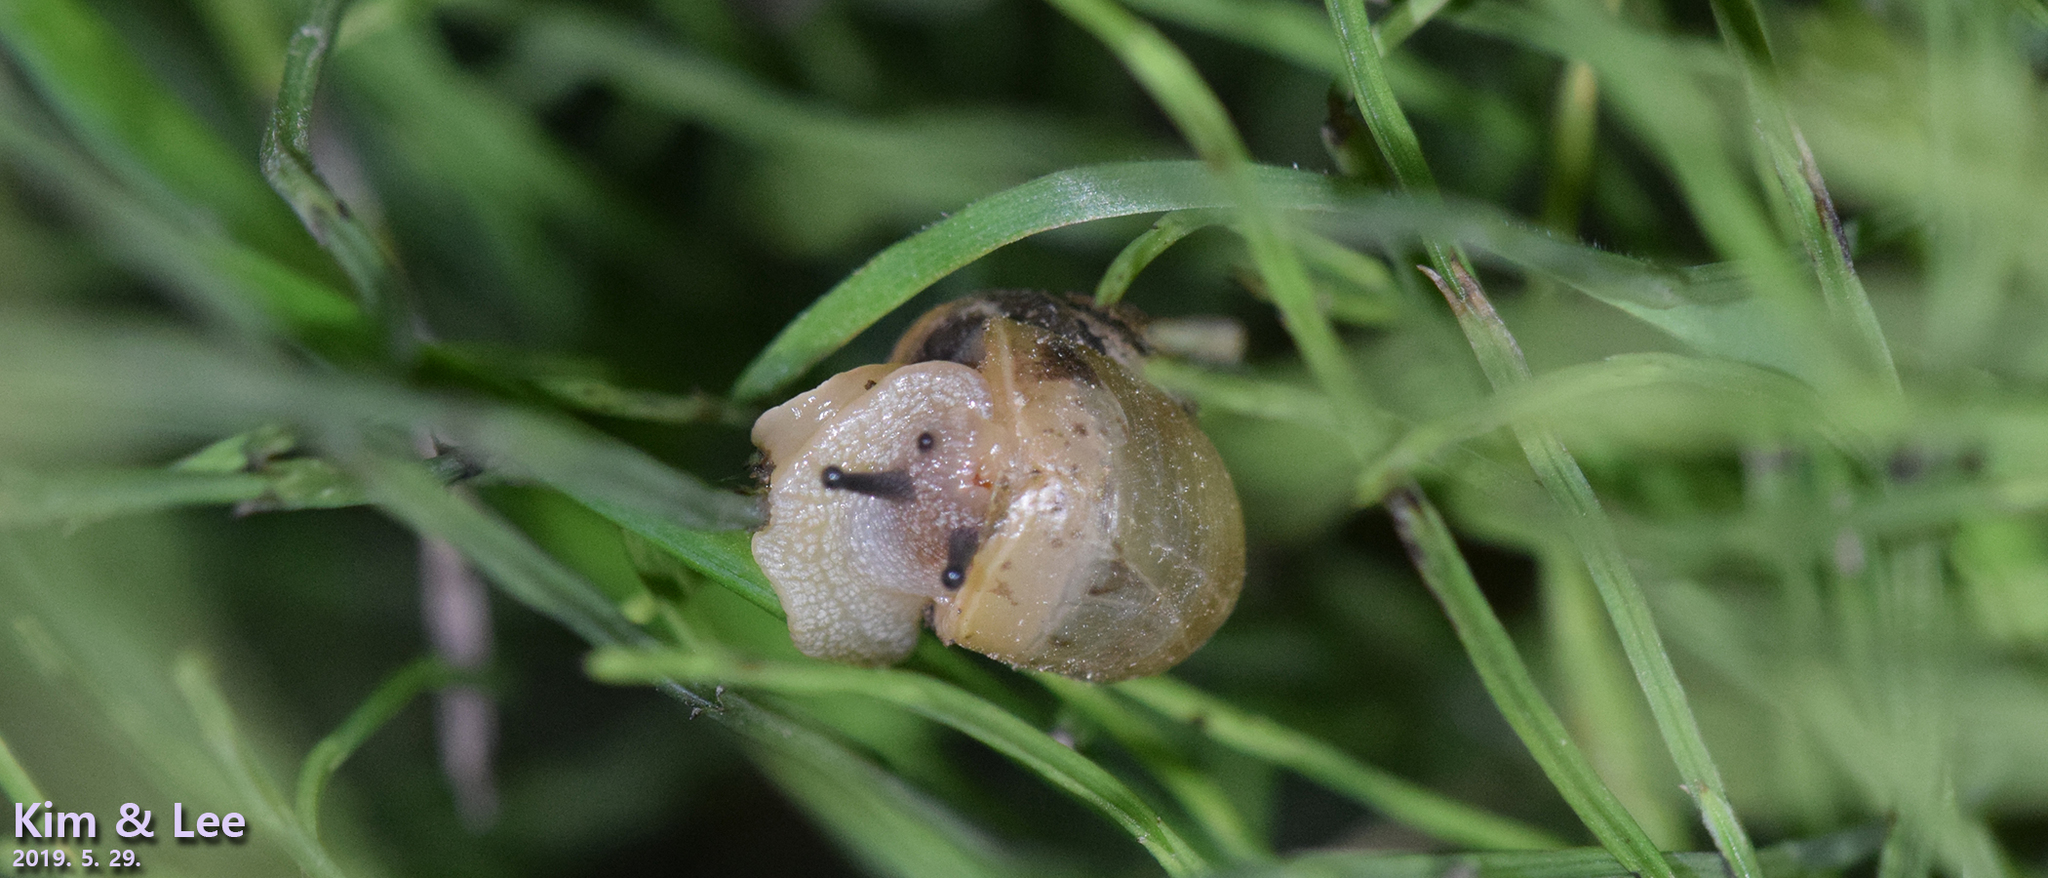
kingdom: Animalia
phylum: Mollusca
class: Gastropoda
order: Stylommatophora
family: Camaenidae
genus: Acusta
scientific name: Acusta redfieldi
